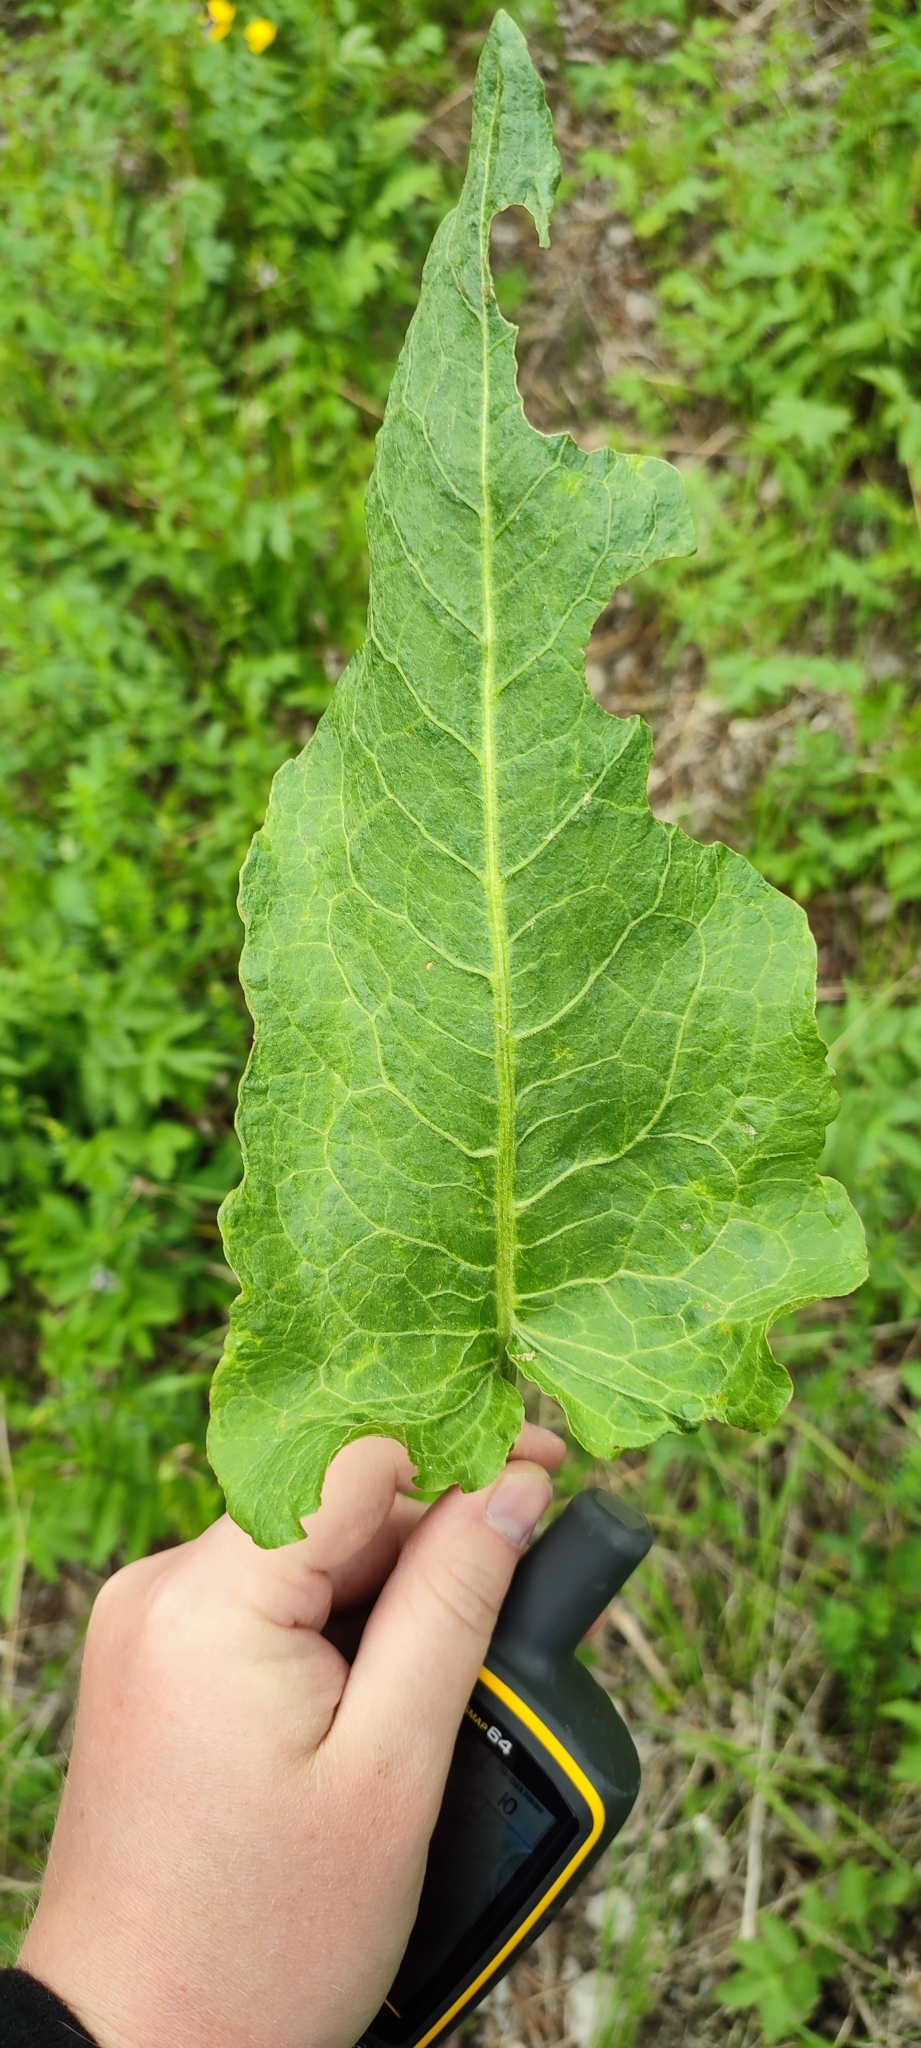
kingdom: Plantae
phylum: Tracheophyta
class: Magnoliopsida
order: Caryophyllales
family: Polygonaceae
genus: Rumex
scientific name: Rumex confertus
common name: Russian dock
